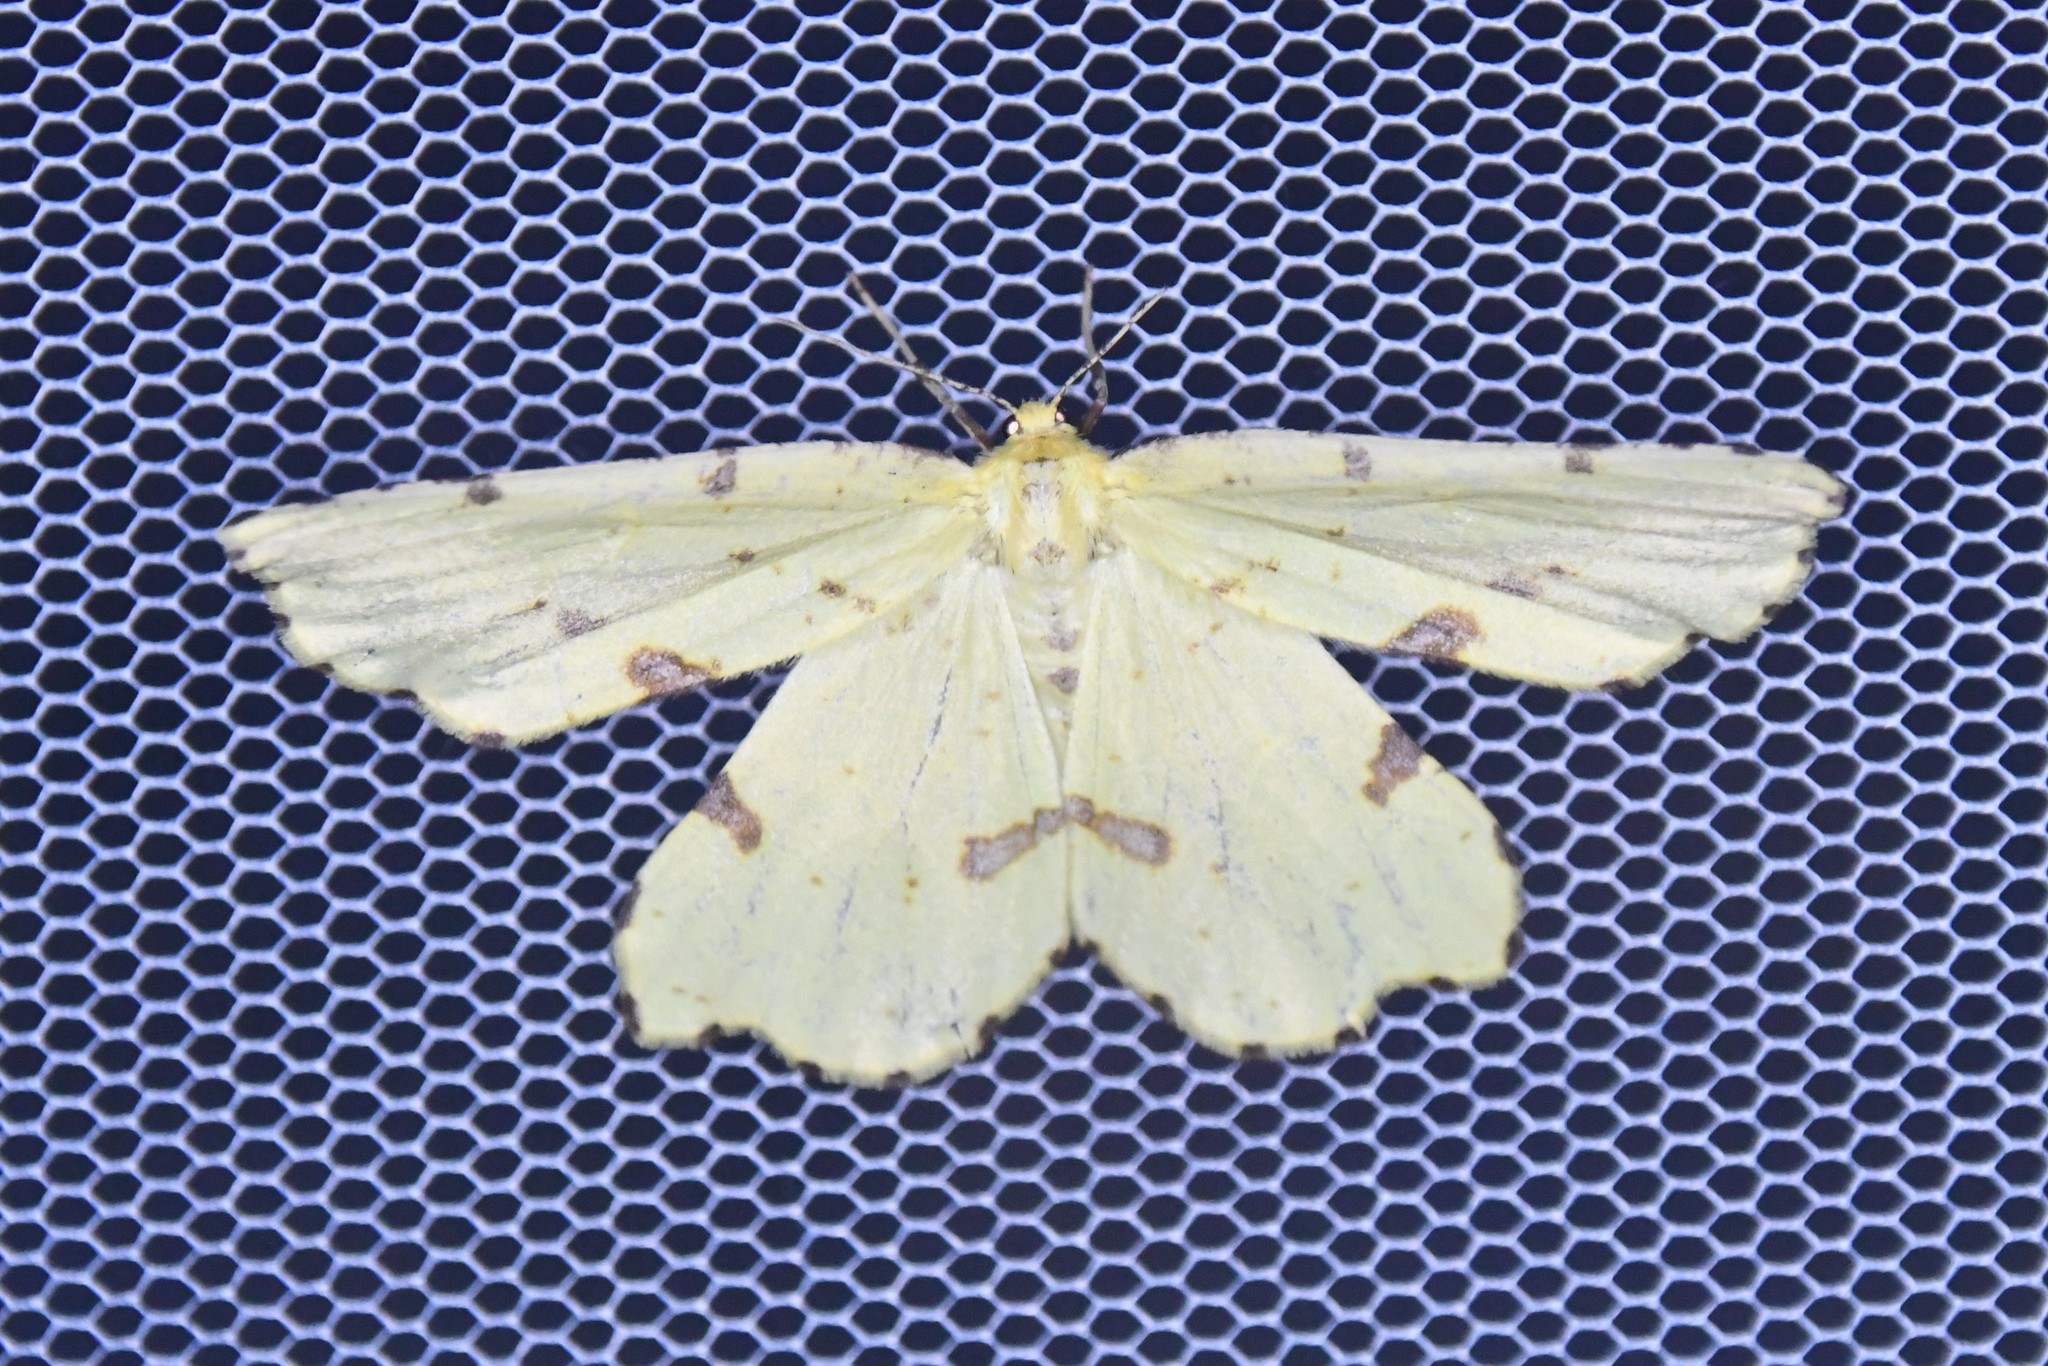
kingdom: Animalia
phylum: Arthropoda
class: Insecta
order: Lepidoptera
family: Geometridae
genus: Xanthotype
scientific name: Xanthotype
